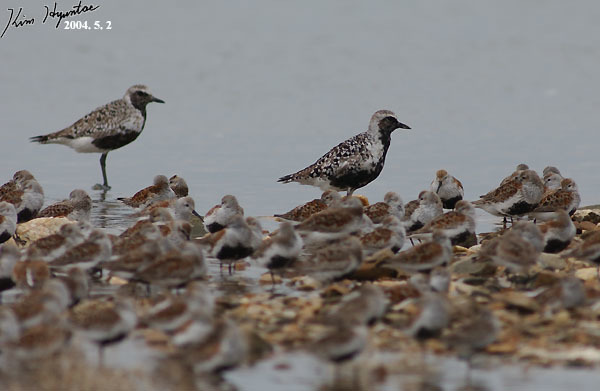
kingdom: Animalia
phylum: Chordata
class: Aves
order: Charadriiformes
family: Charadriidae
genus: Pluvialis
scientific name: Pluvialis squatarola
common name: Grey plover
